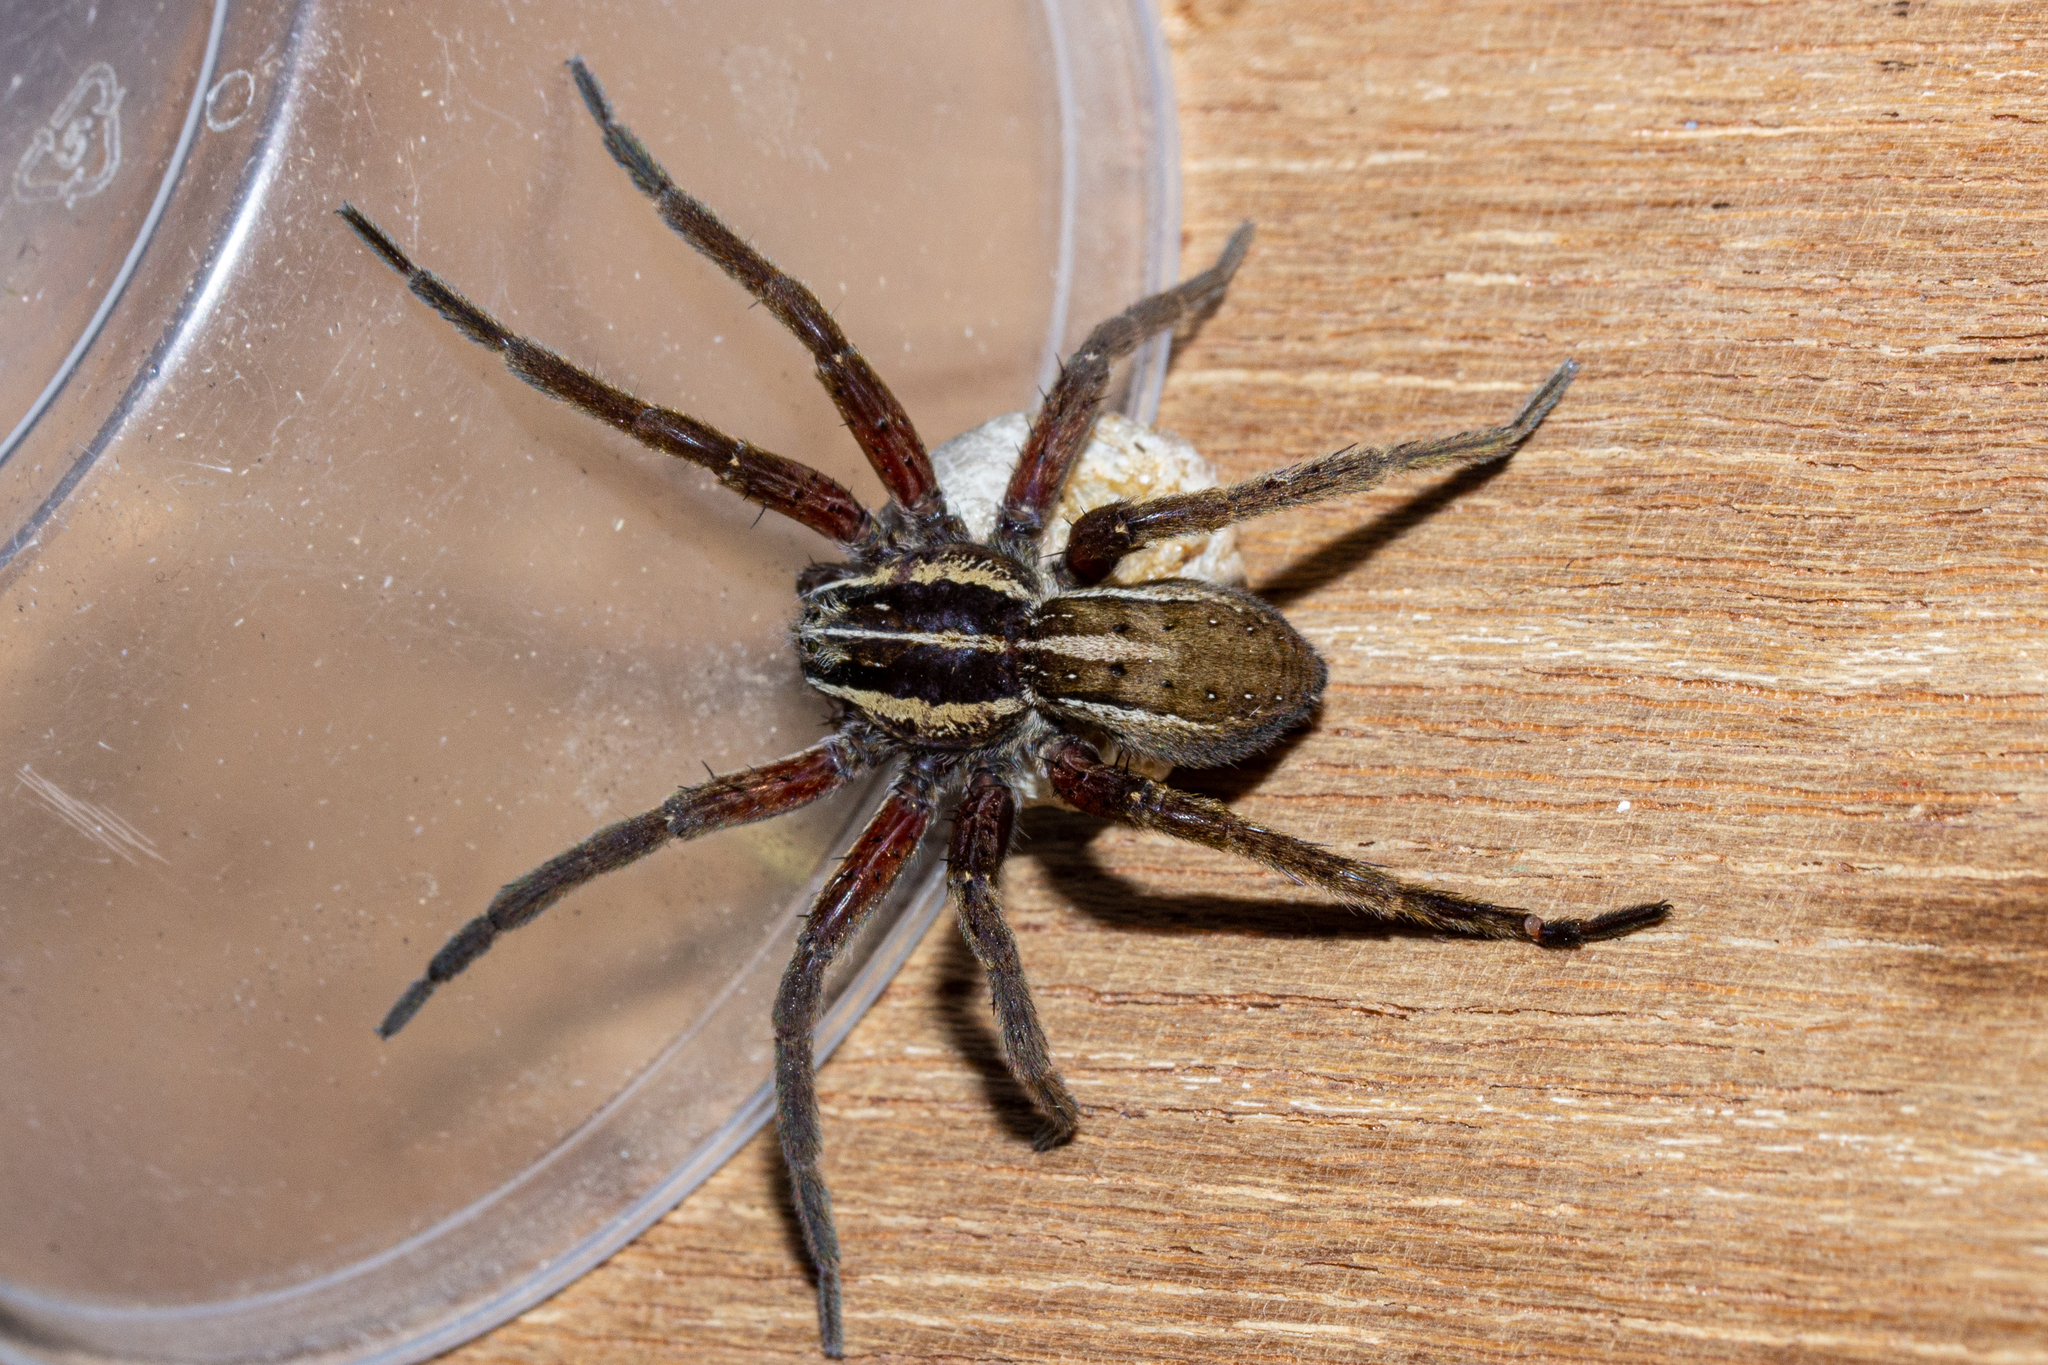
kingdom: Animalia
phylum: Arthropoda
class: Arachnida
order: Araneae
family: Pisauridae
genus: Dolomedes
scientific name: Dolomedes minor
